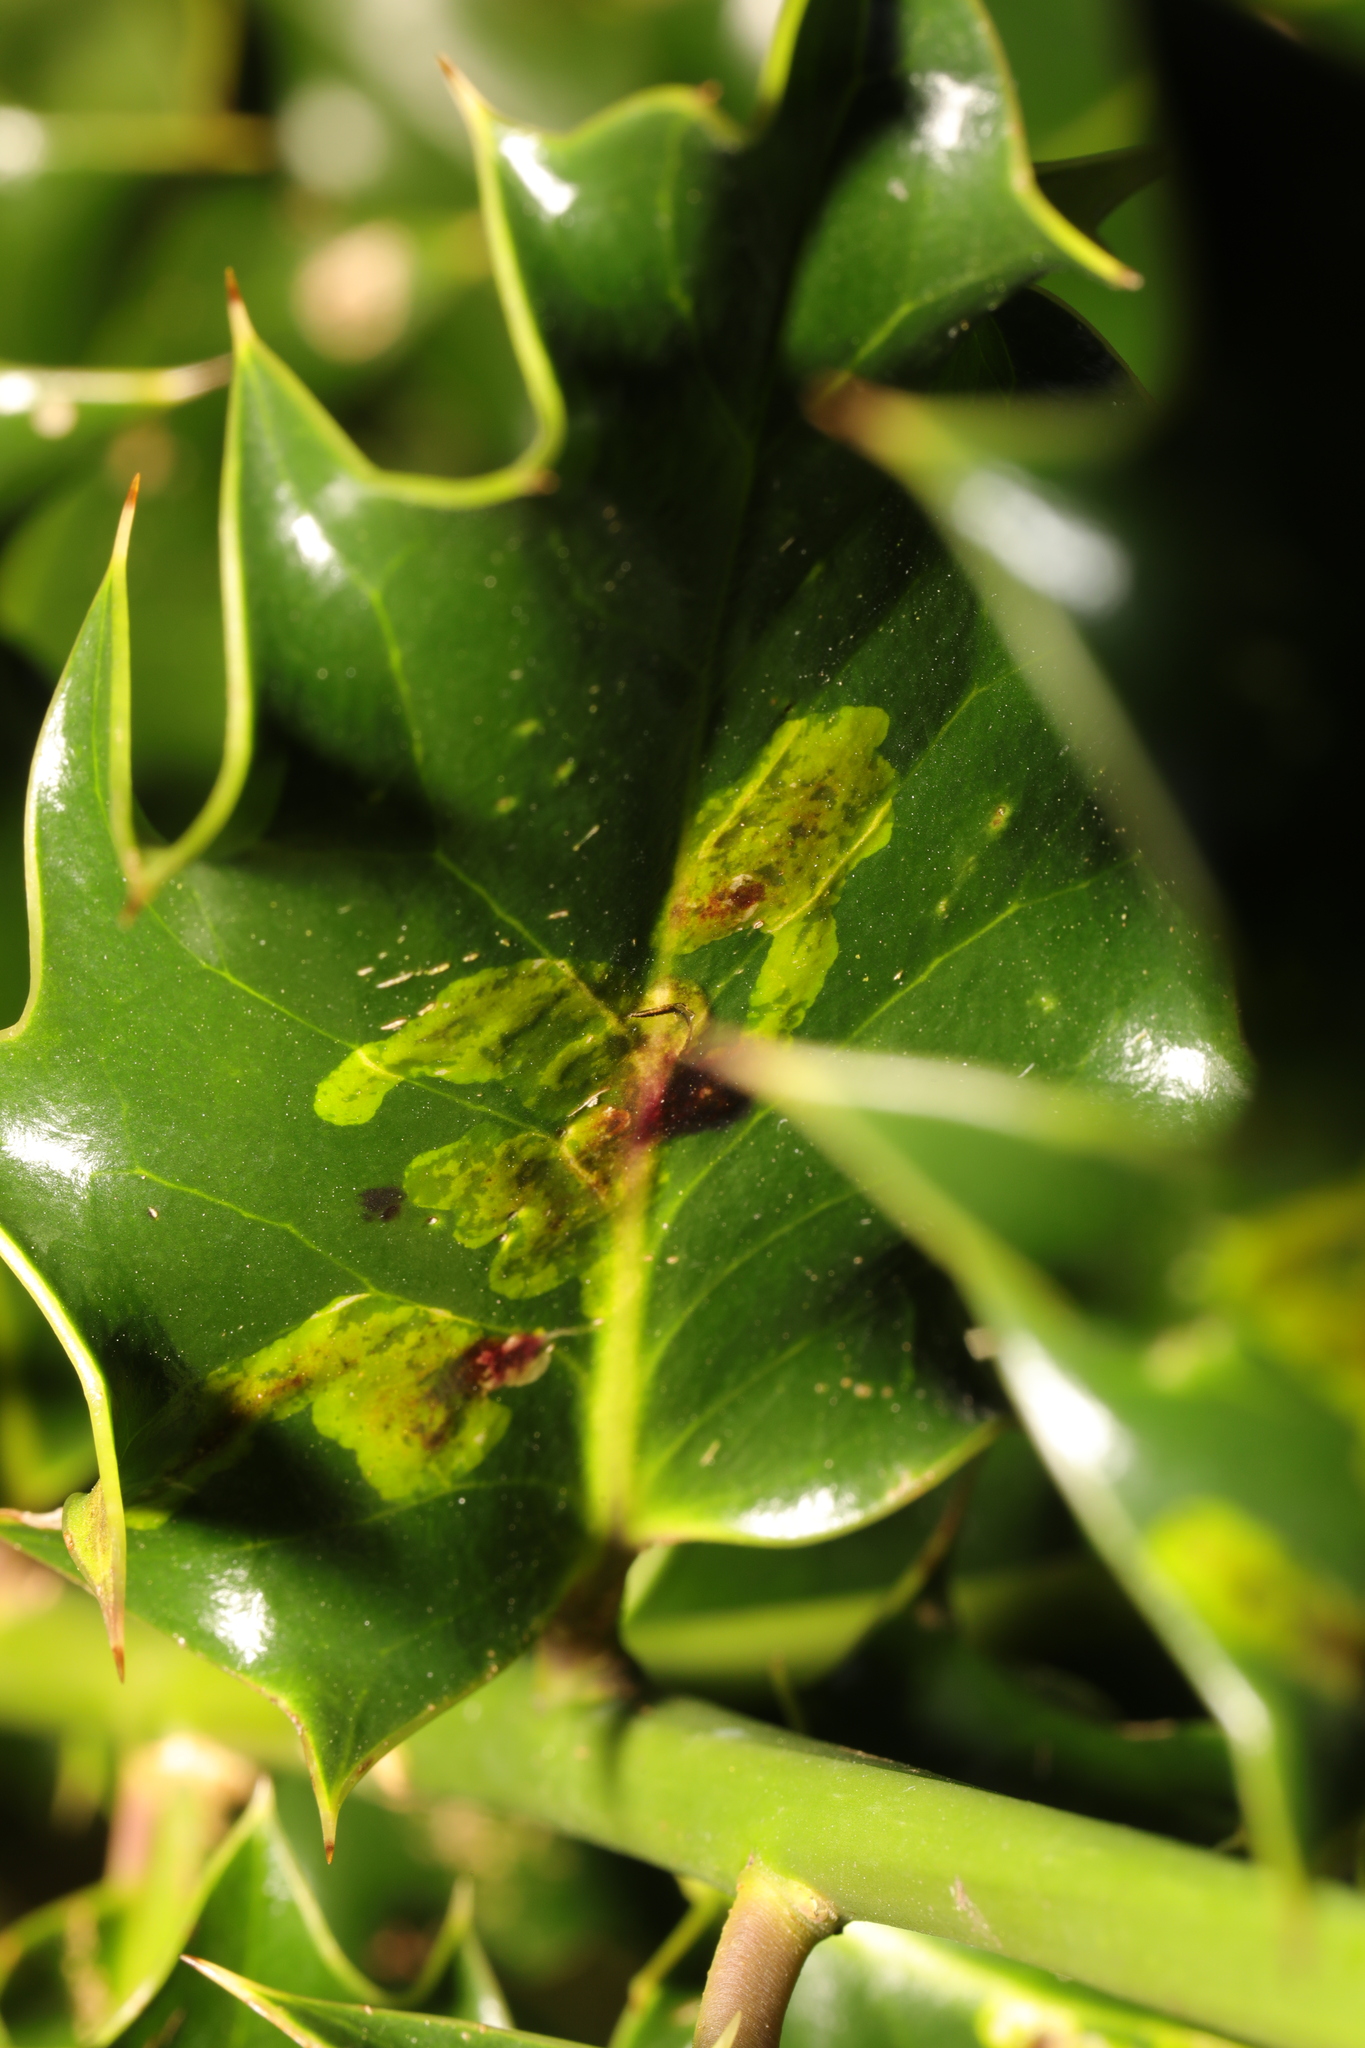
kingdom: Animalia
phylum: Arthropoda
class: Insecta
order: Diptera
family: Agromyzidae
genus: Phytomyza
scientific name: Phytomyza ilicis
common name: Holly leafminer
